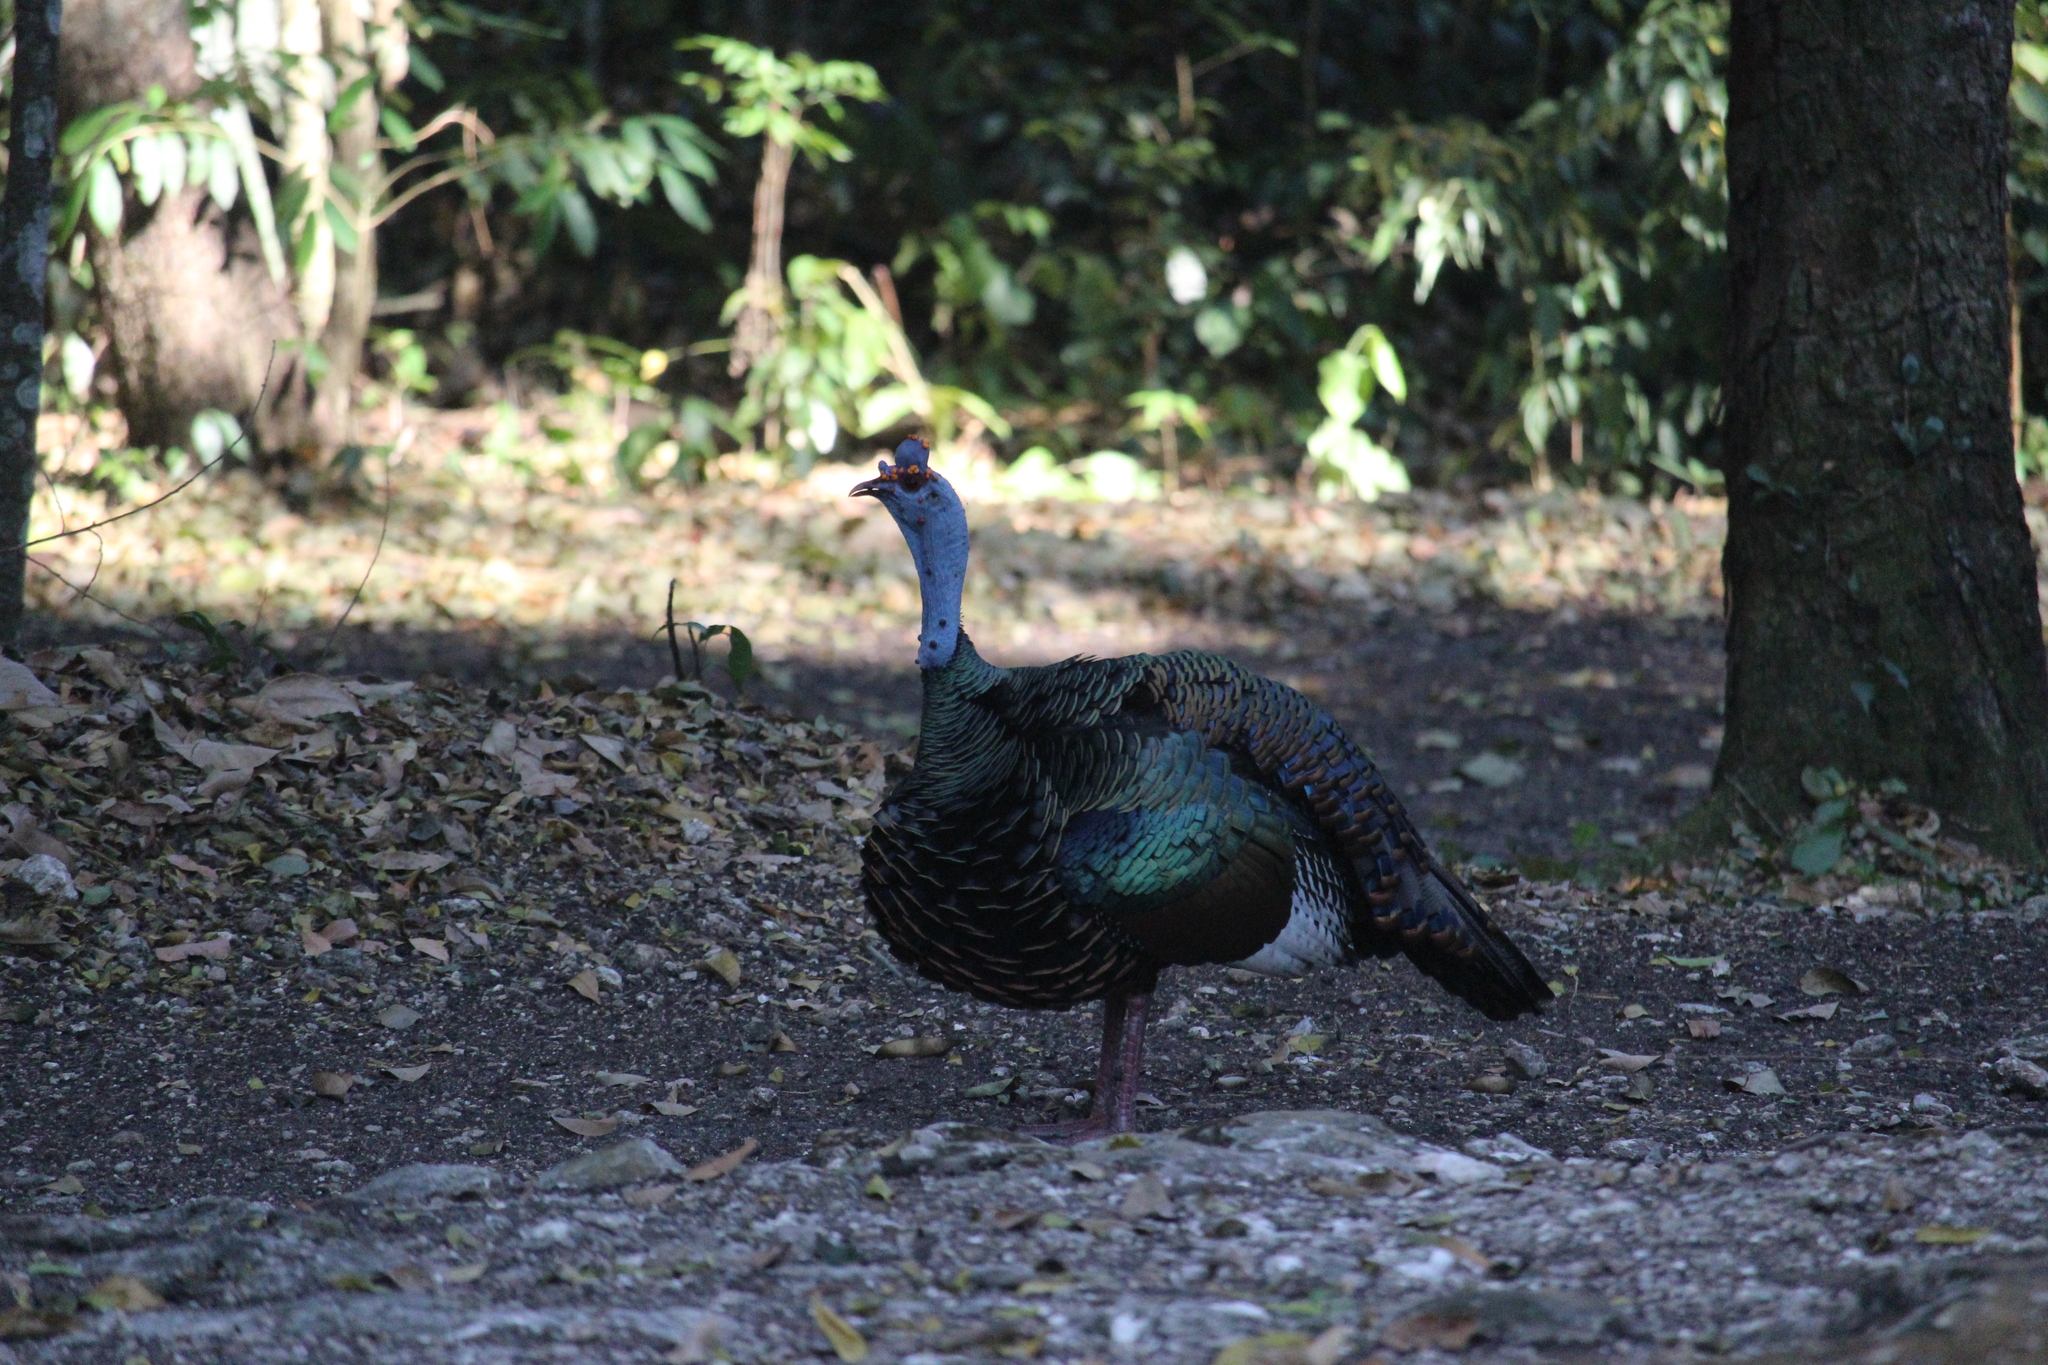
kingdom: Animalia
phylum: Chordata
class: Aves
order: Galliformes
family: Phasianidae
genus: Meleagris
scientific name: Meleagris ocellata
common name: Ocellated turkey
